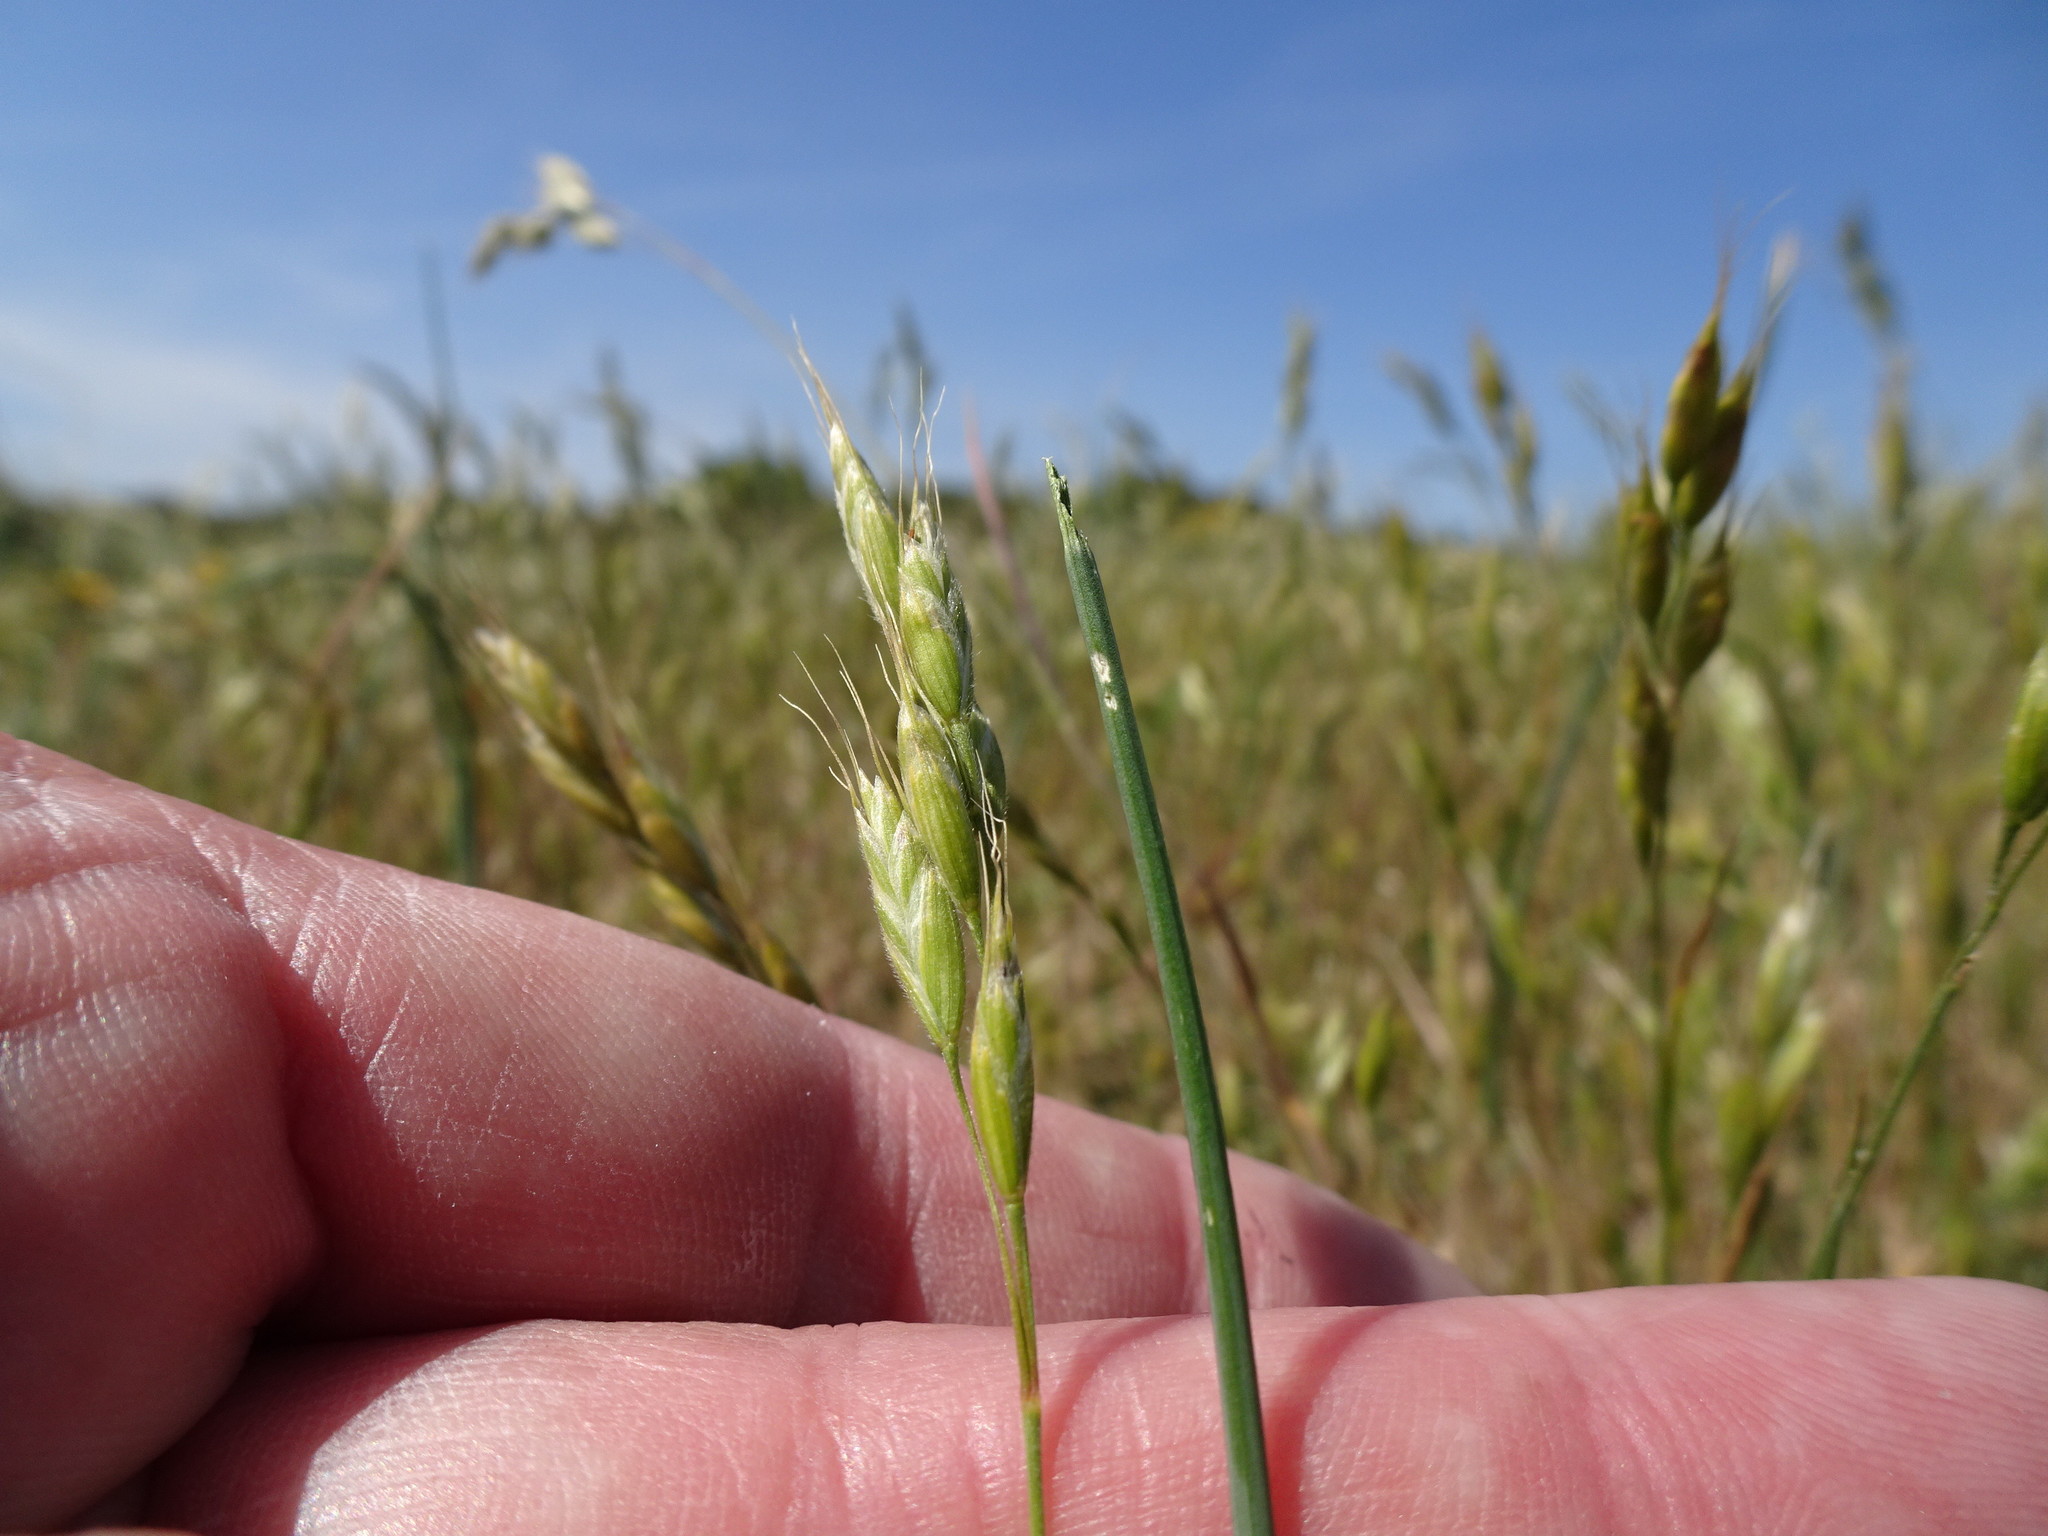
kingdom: Plantae
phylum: Tracheophyta
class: Liliopsida
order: Poales
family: Poaceae
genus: Bromus
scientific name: Bromus hordeaceus
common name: Soft brome
